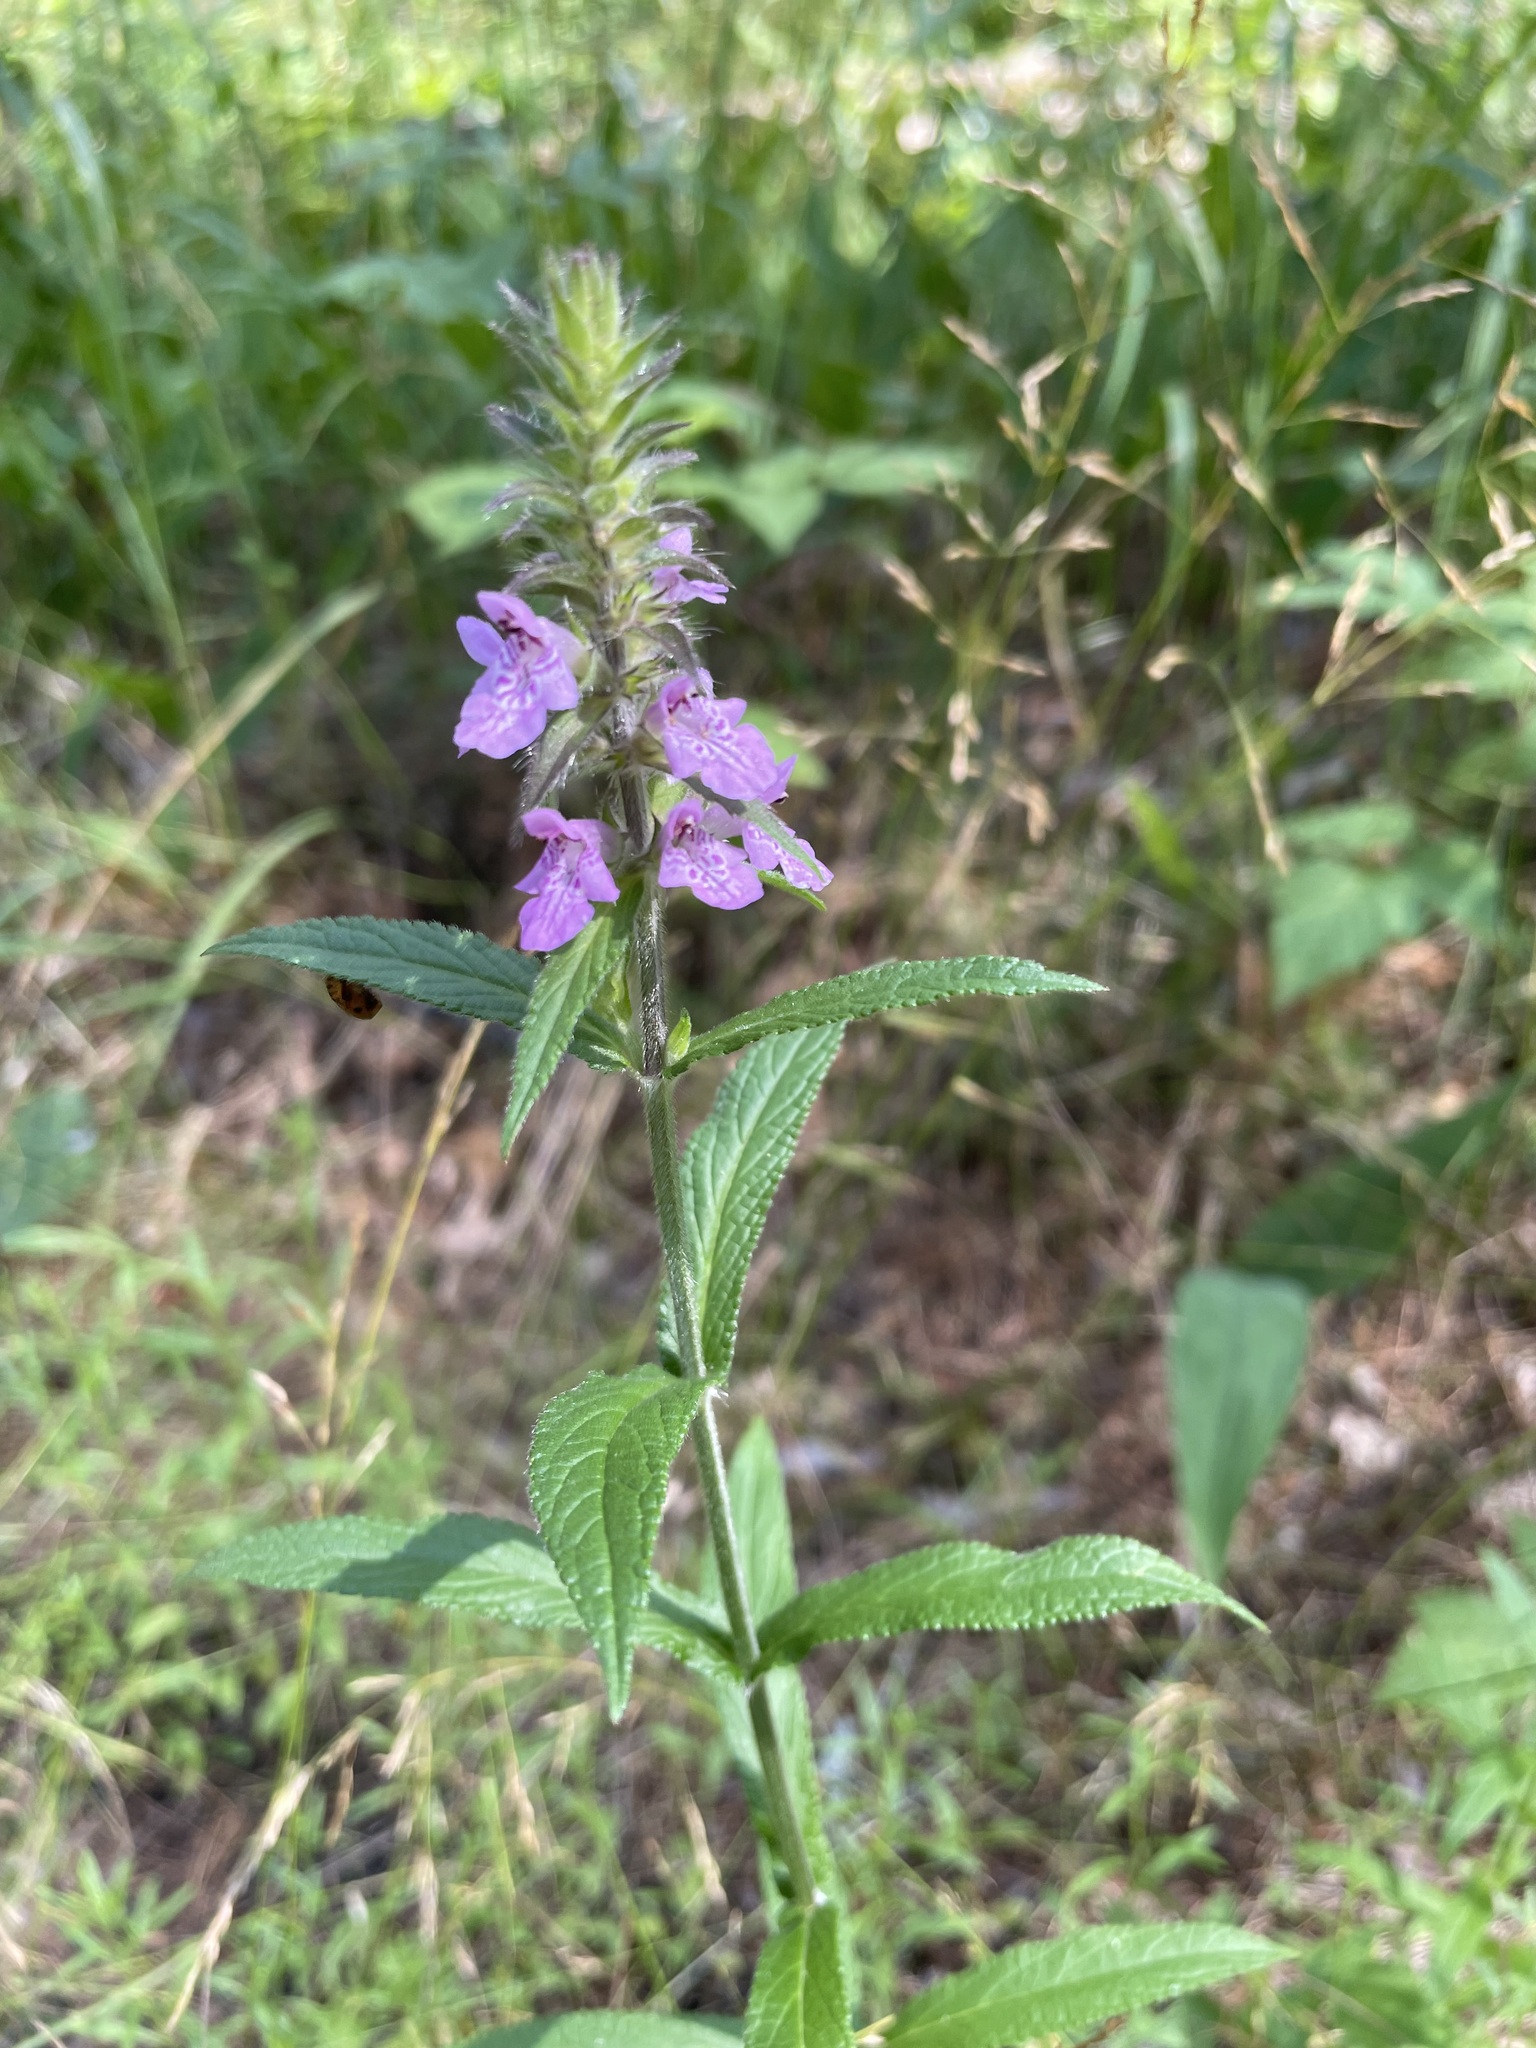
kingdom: Plantae
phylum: Tracheophyta
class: Magnoliopsida
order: Lamiales
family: Lamiaceae
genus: Stachys
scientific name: Stachys palustris
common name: Marsh woundwort
